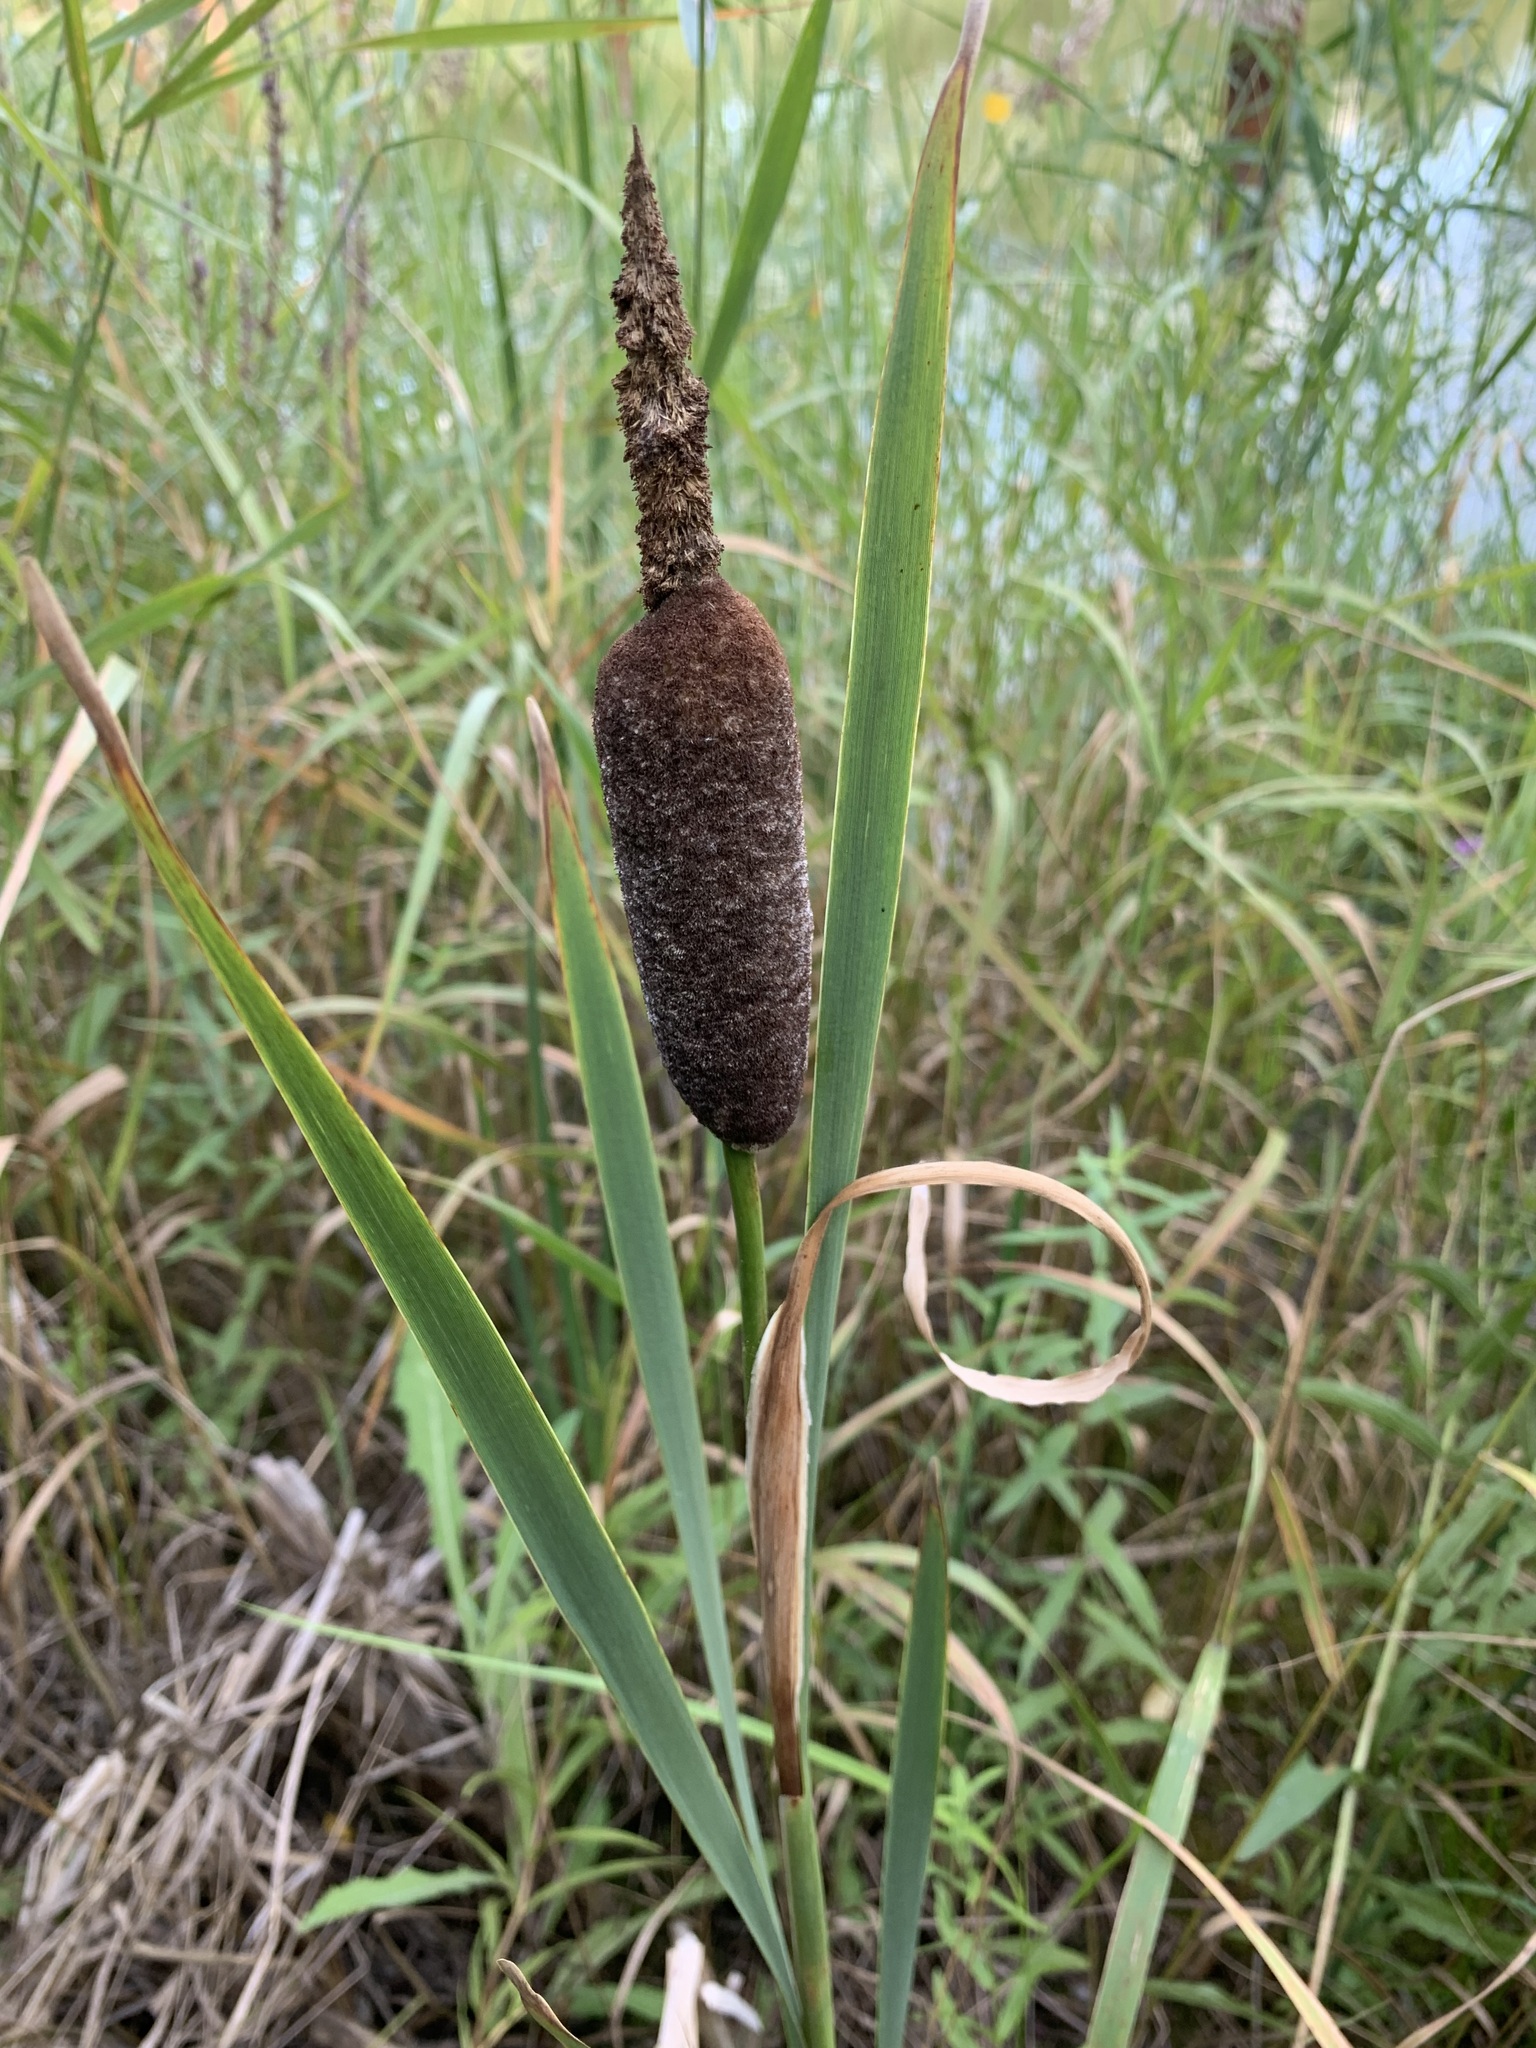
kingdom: Plantae
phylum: Tracheophyta
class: Liliopsida
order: Poales
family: Typhaceae
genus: Typha
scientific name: Typha incana
